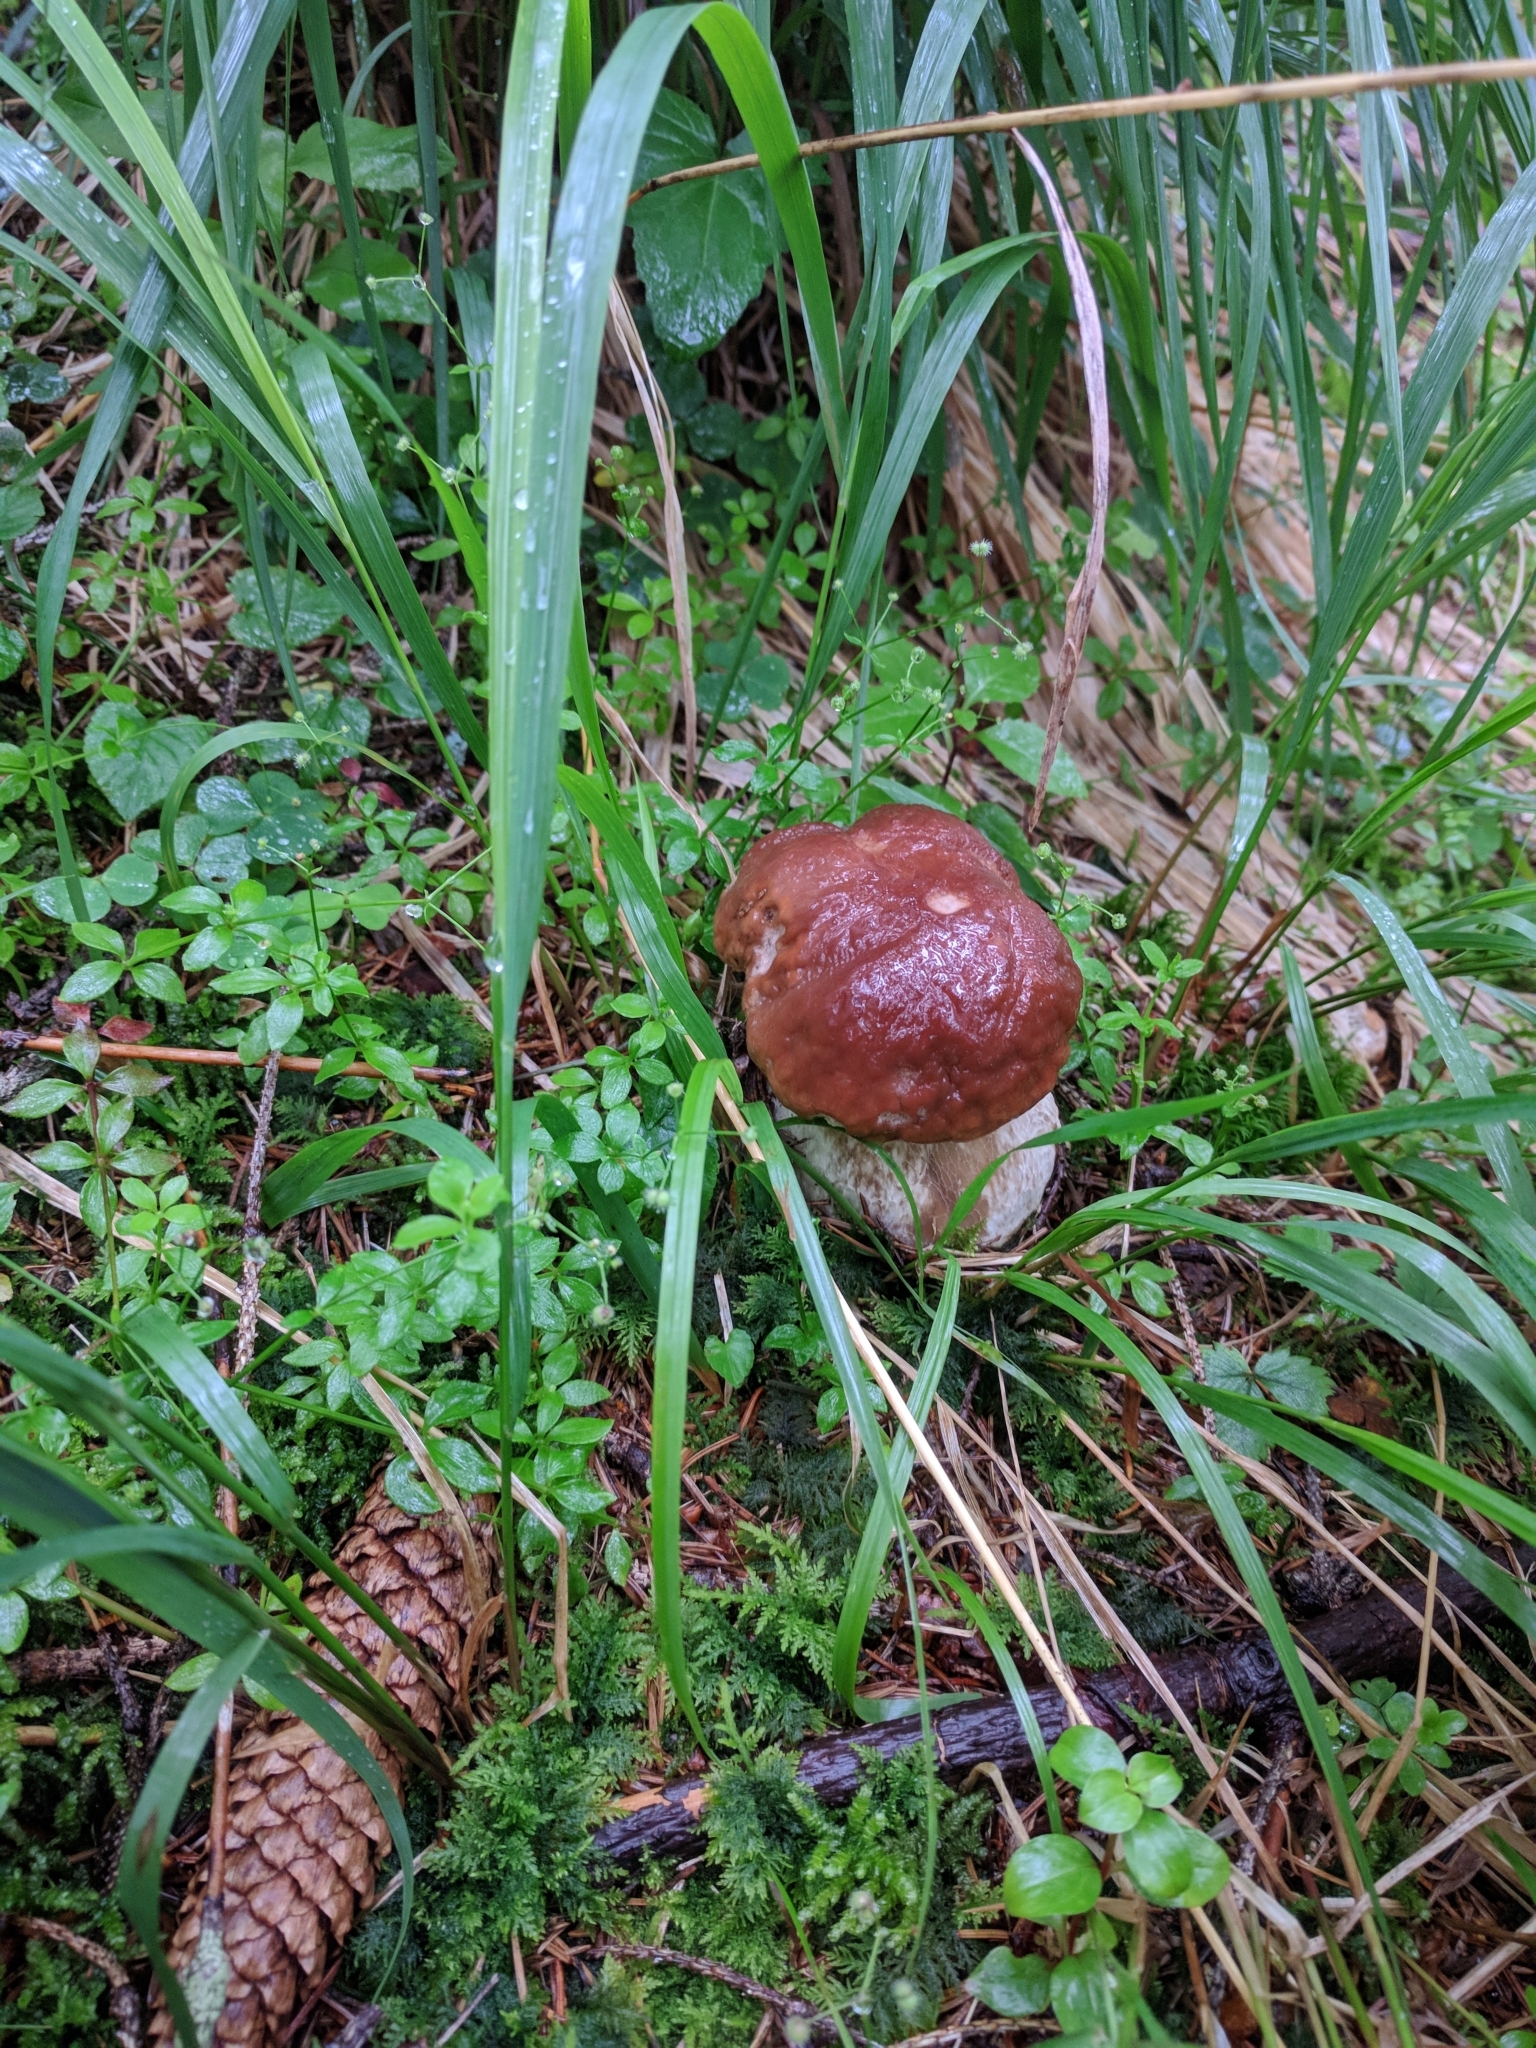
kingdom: Fungi
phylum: Basidiomycota
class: Agaricomycetes
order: Boletales
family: Boletaceae
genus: Boletus
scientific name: Boletus pinophilus
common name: Pine bolete
